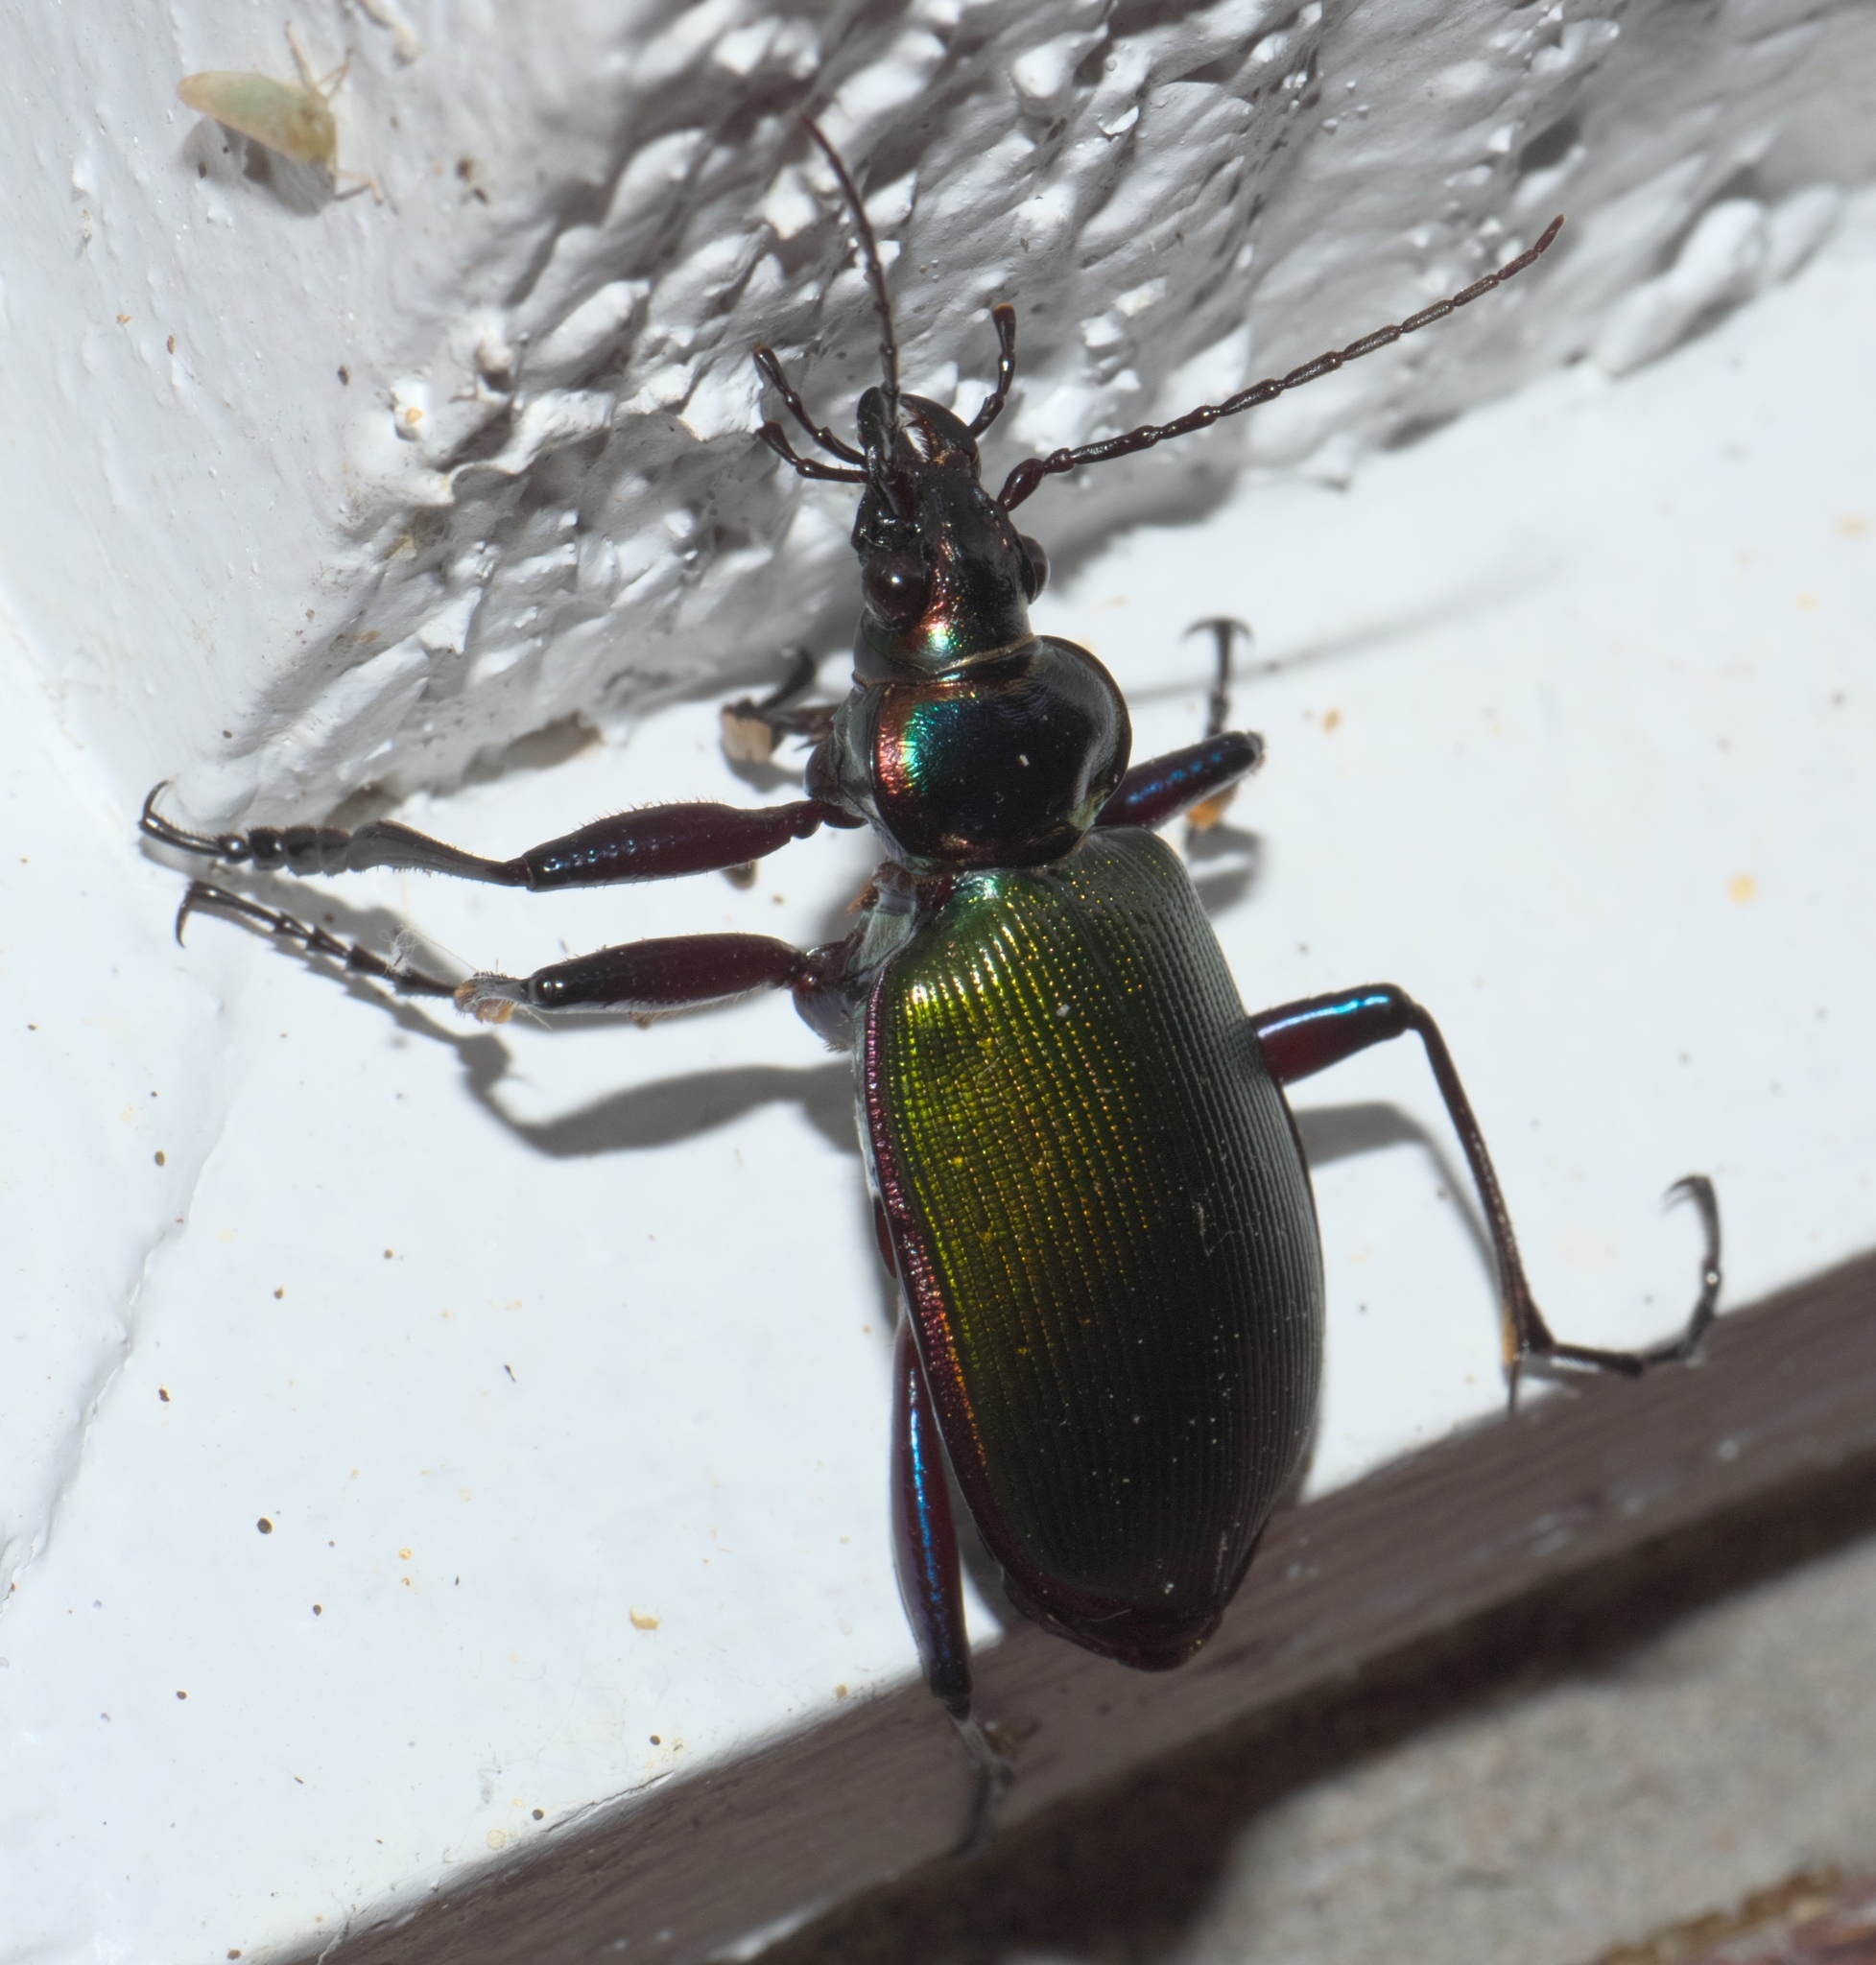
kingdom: Animalia
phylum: Arthropoda
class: Insecta
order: Coleoptera
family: Carabidae
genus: Calosoma
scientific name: Calosoma scrutator
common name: Fiery searcher beetle
